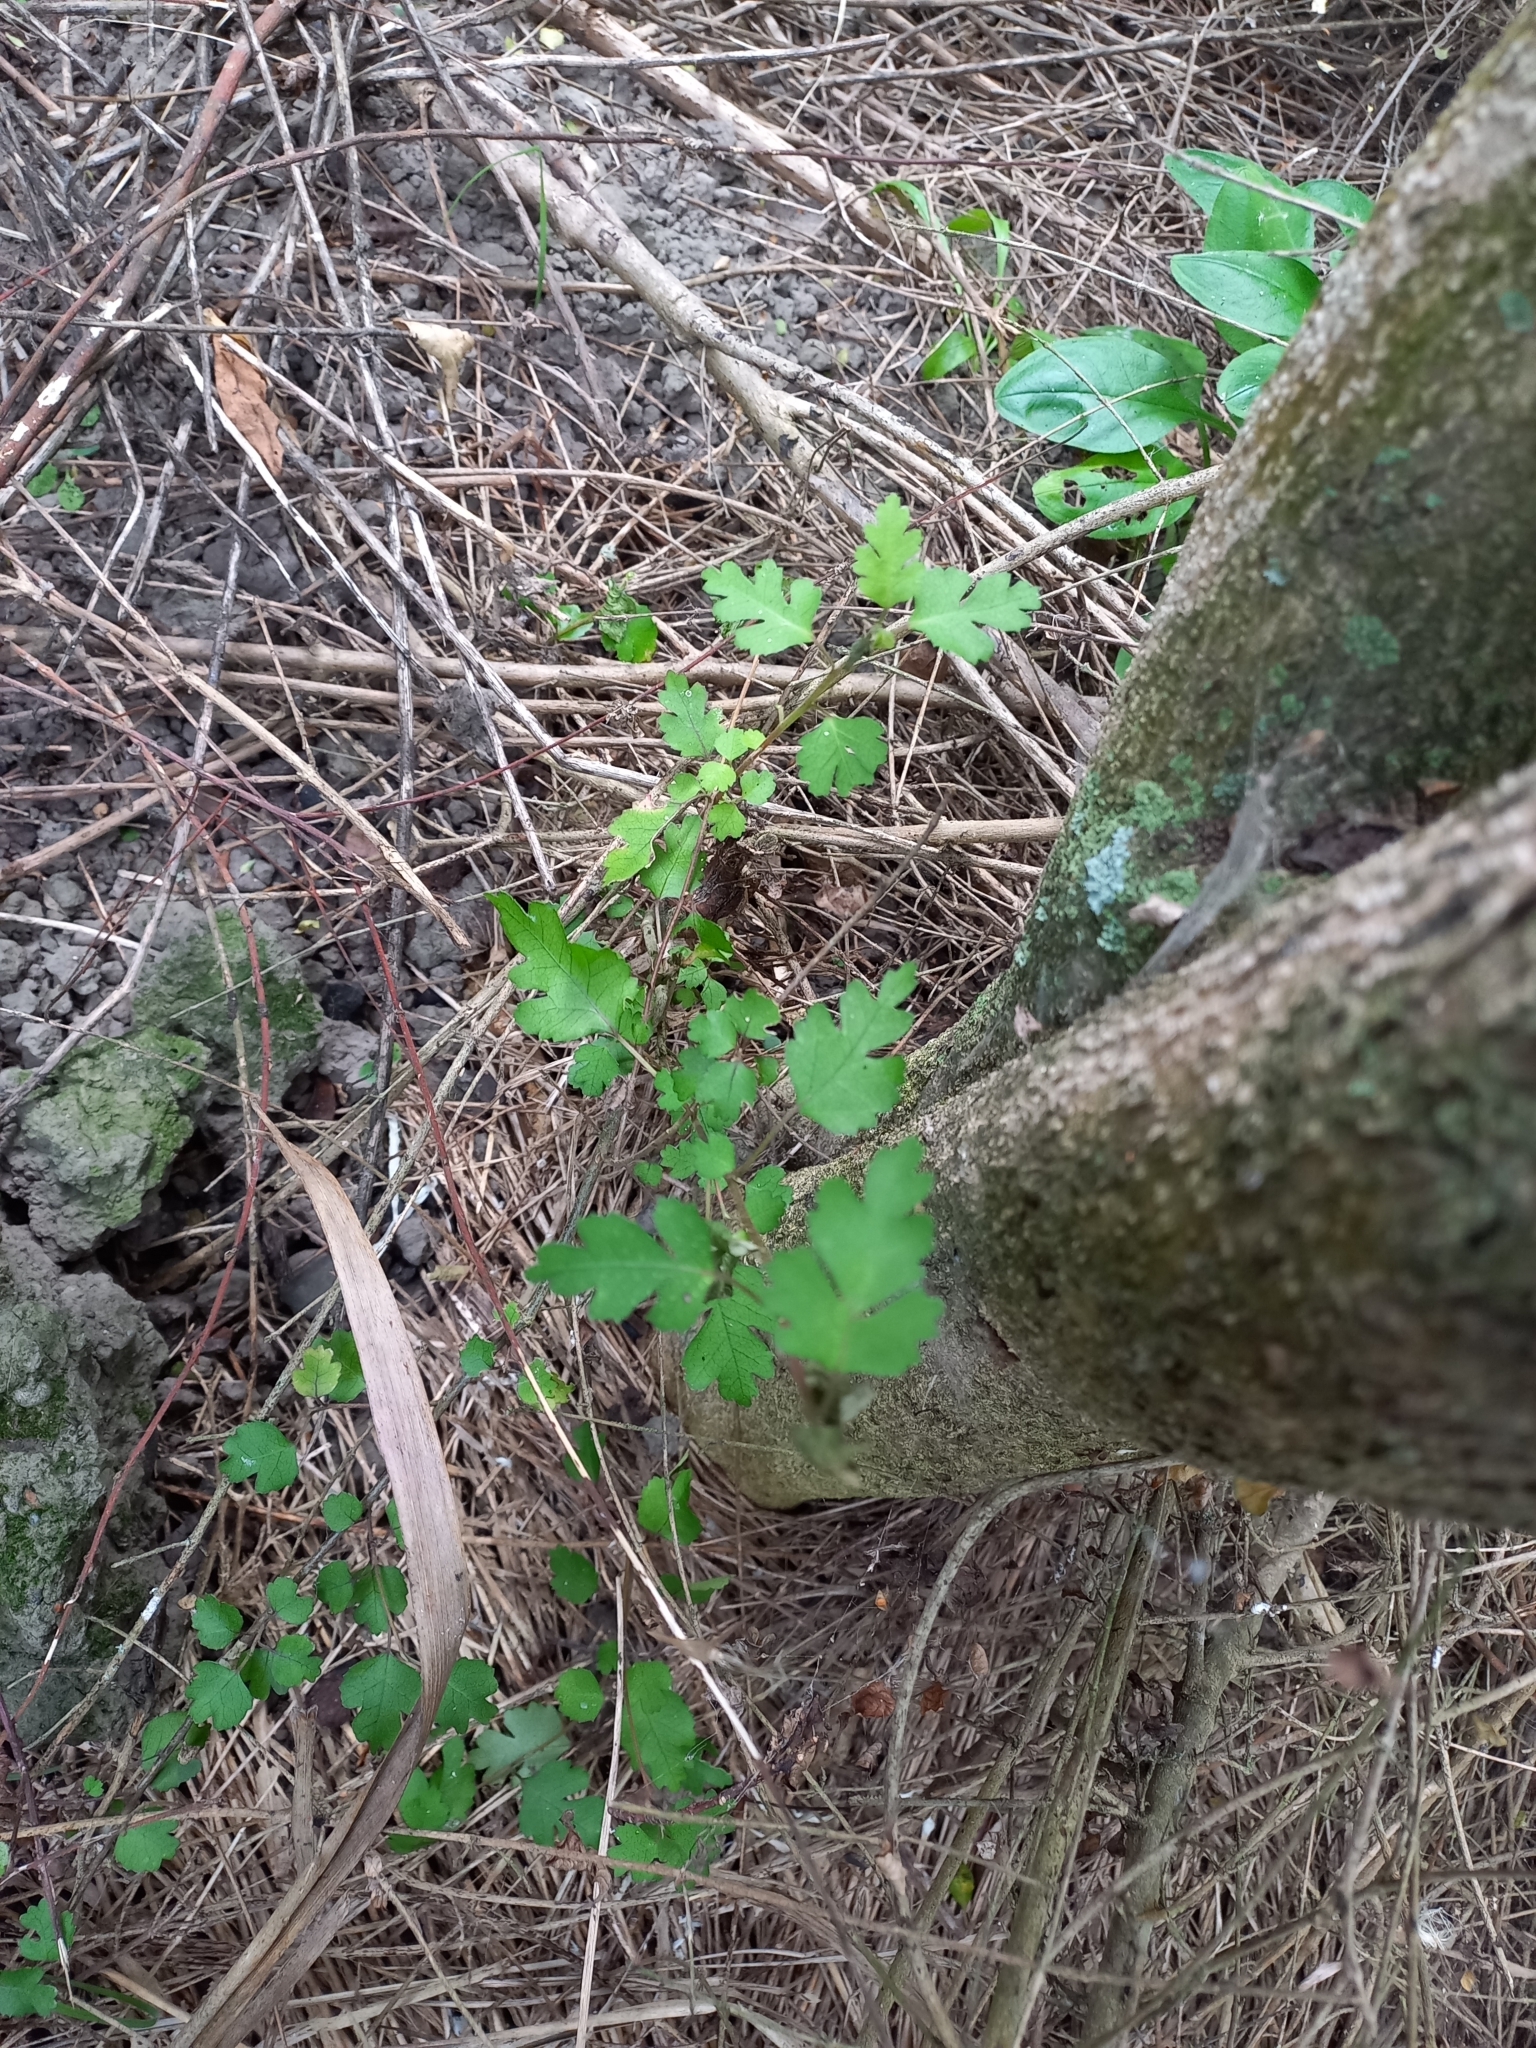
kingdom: Plantae
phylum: Tracheophyta
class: Magnoliopsida
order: Malvales
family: Malvaceae
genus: Hoheria
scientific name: Hoheria populnea
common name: Lacebark
